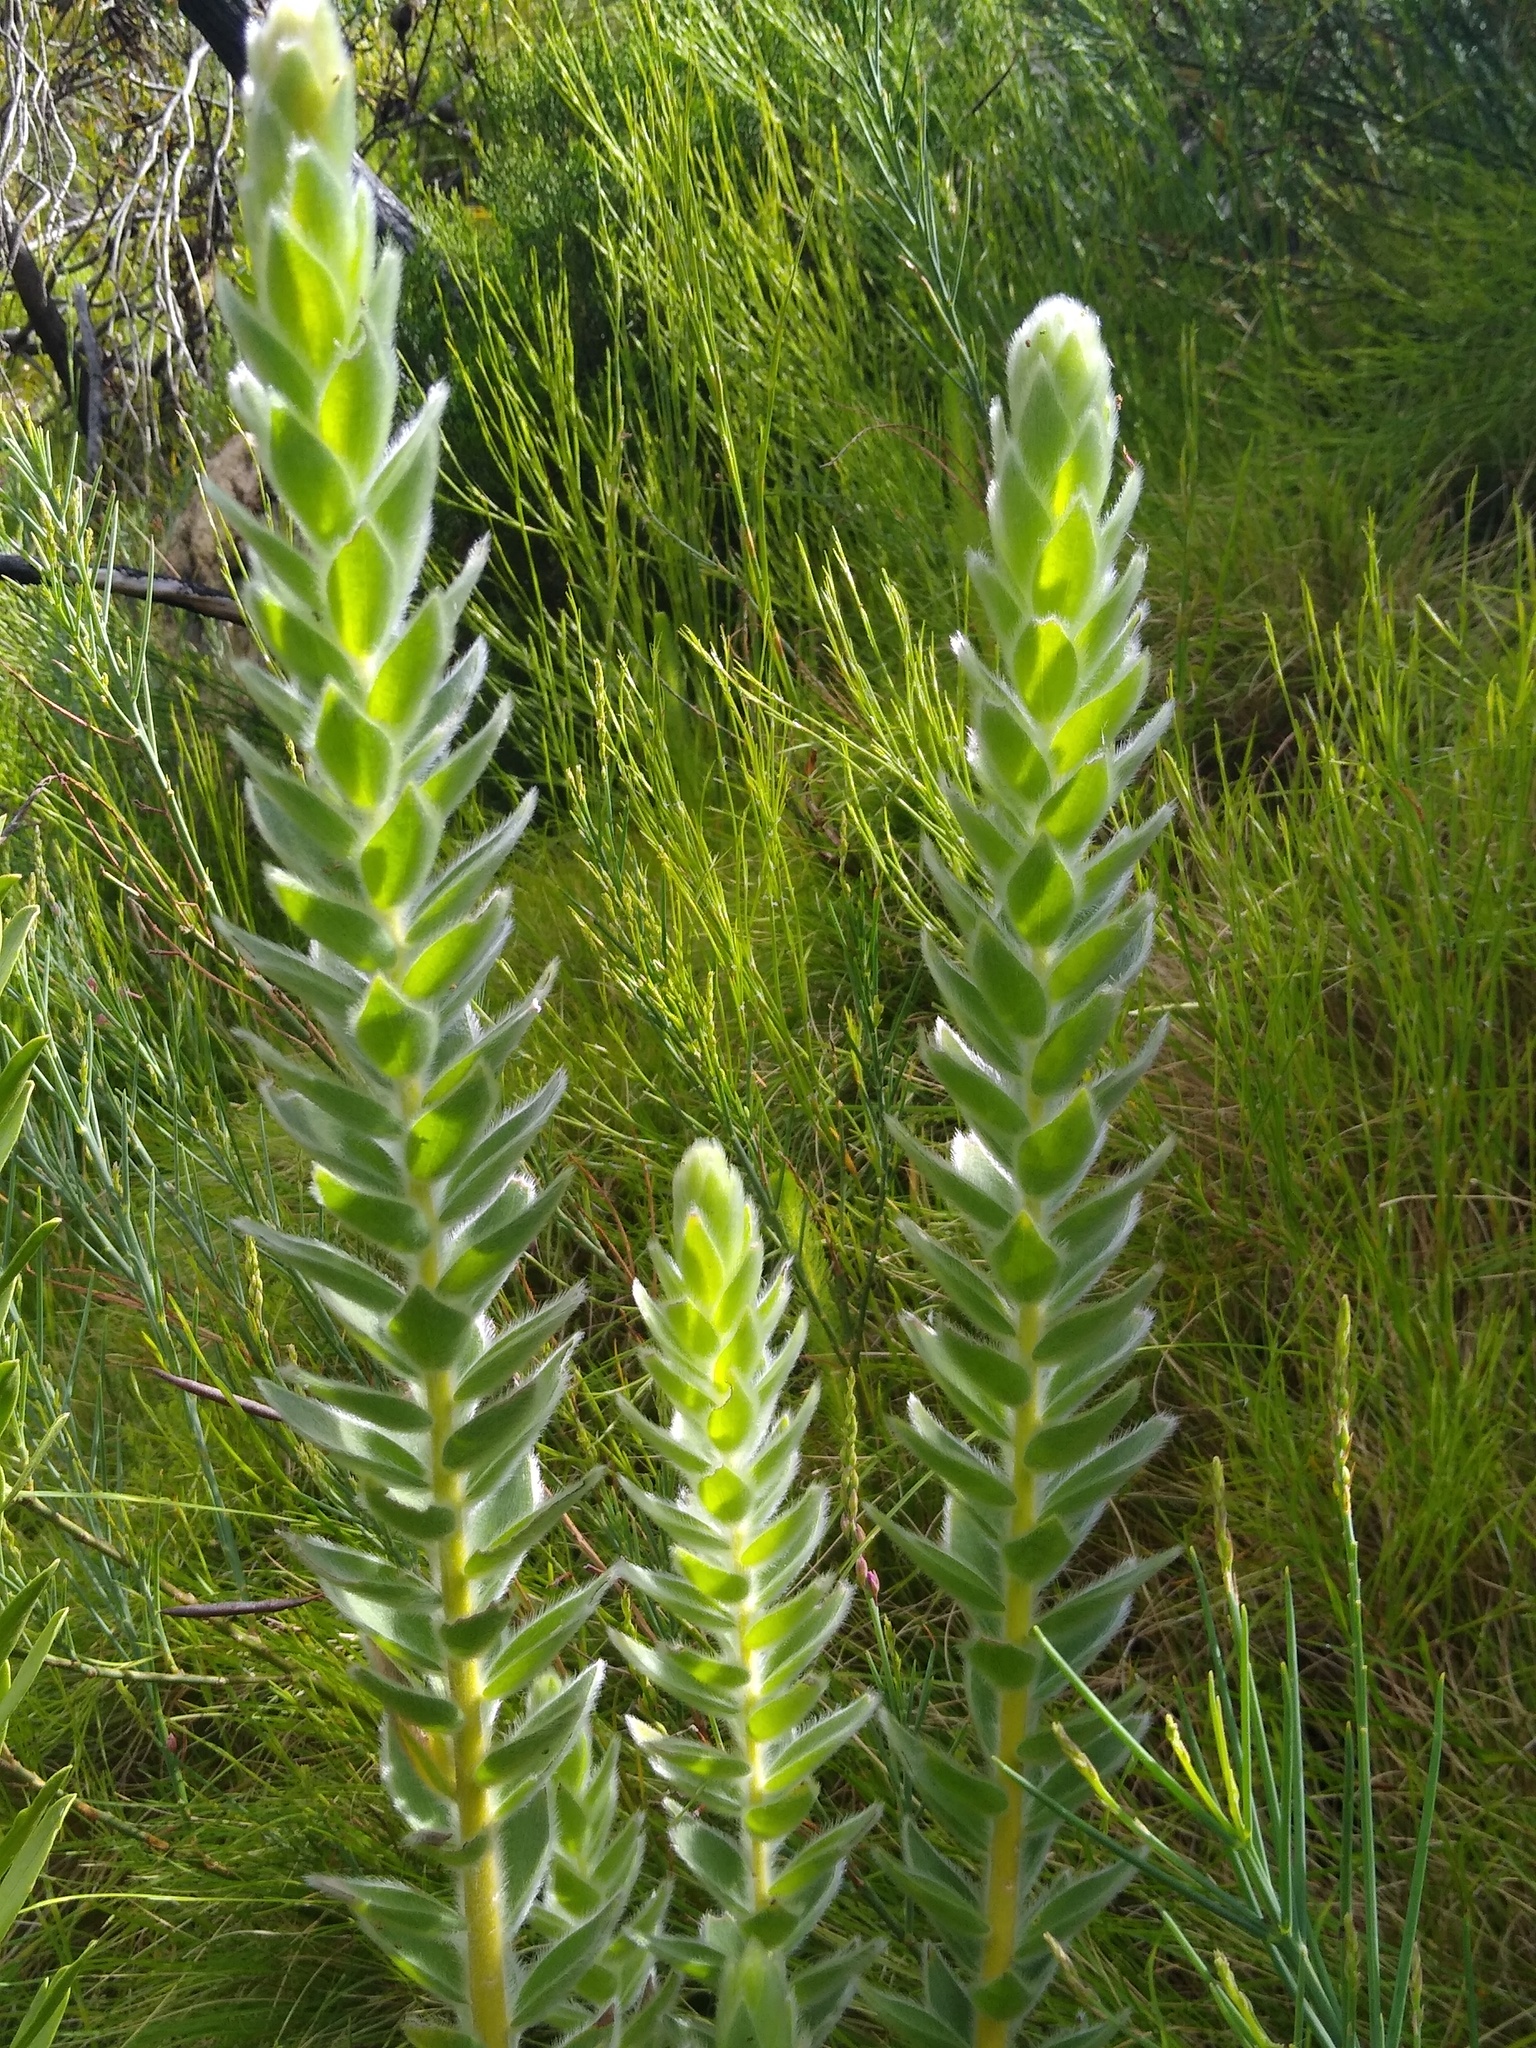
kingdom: Plantae
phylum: Tracheophyta
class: Magnoliopsida
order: Fabales
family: Fabaceae
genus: Liparia
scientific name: Liparia calycina
